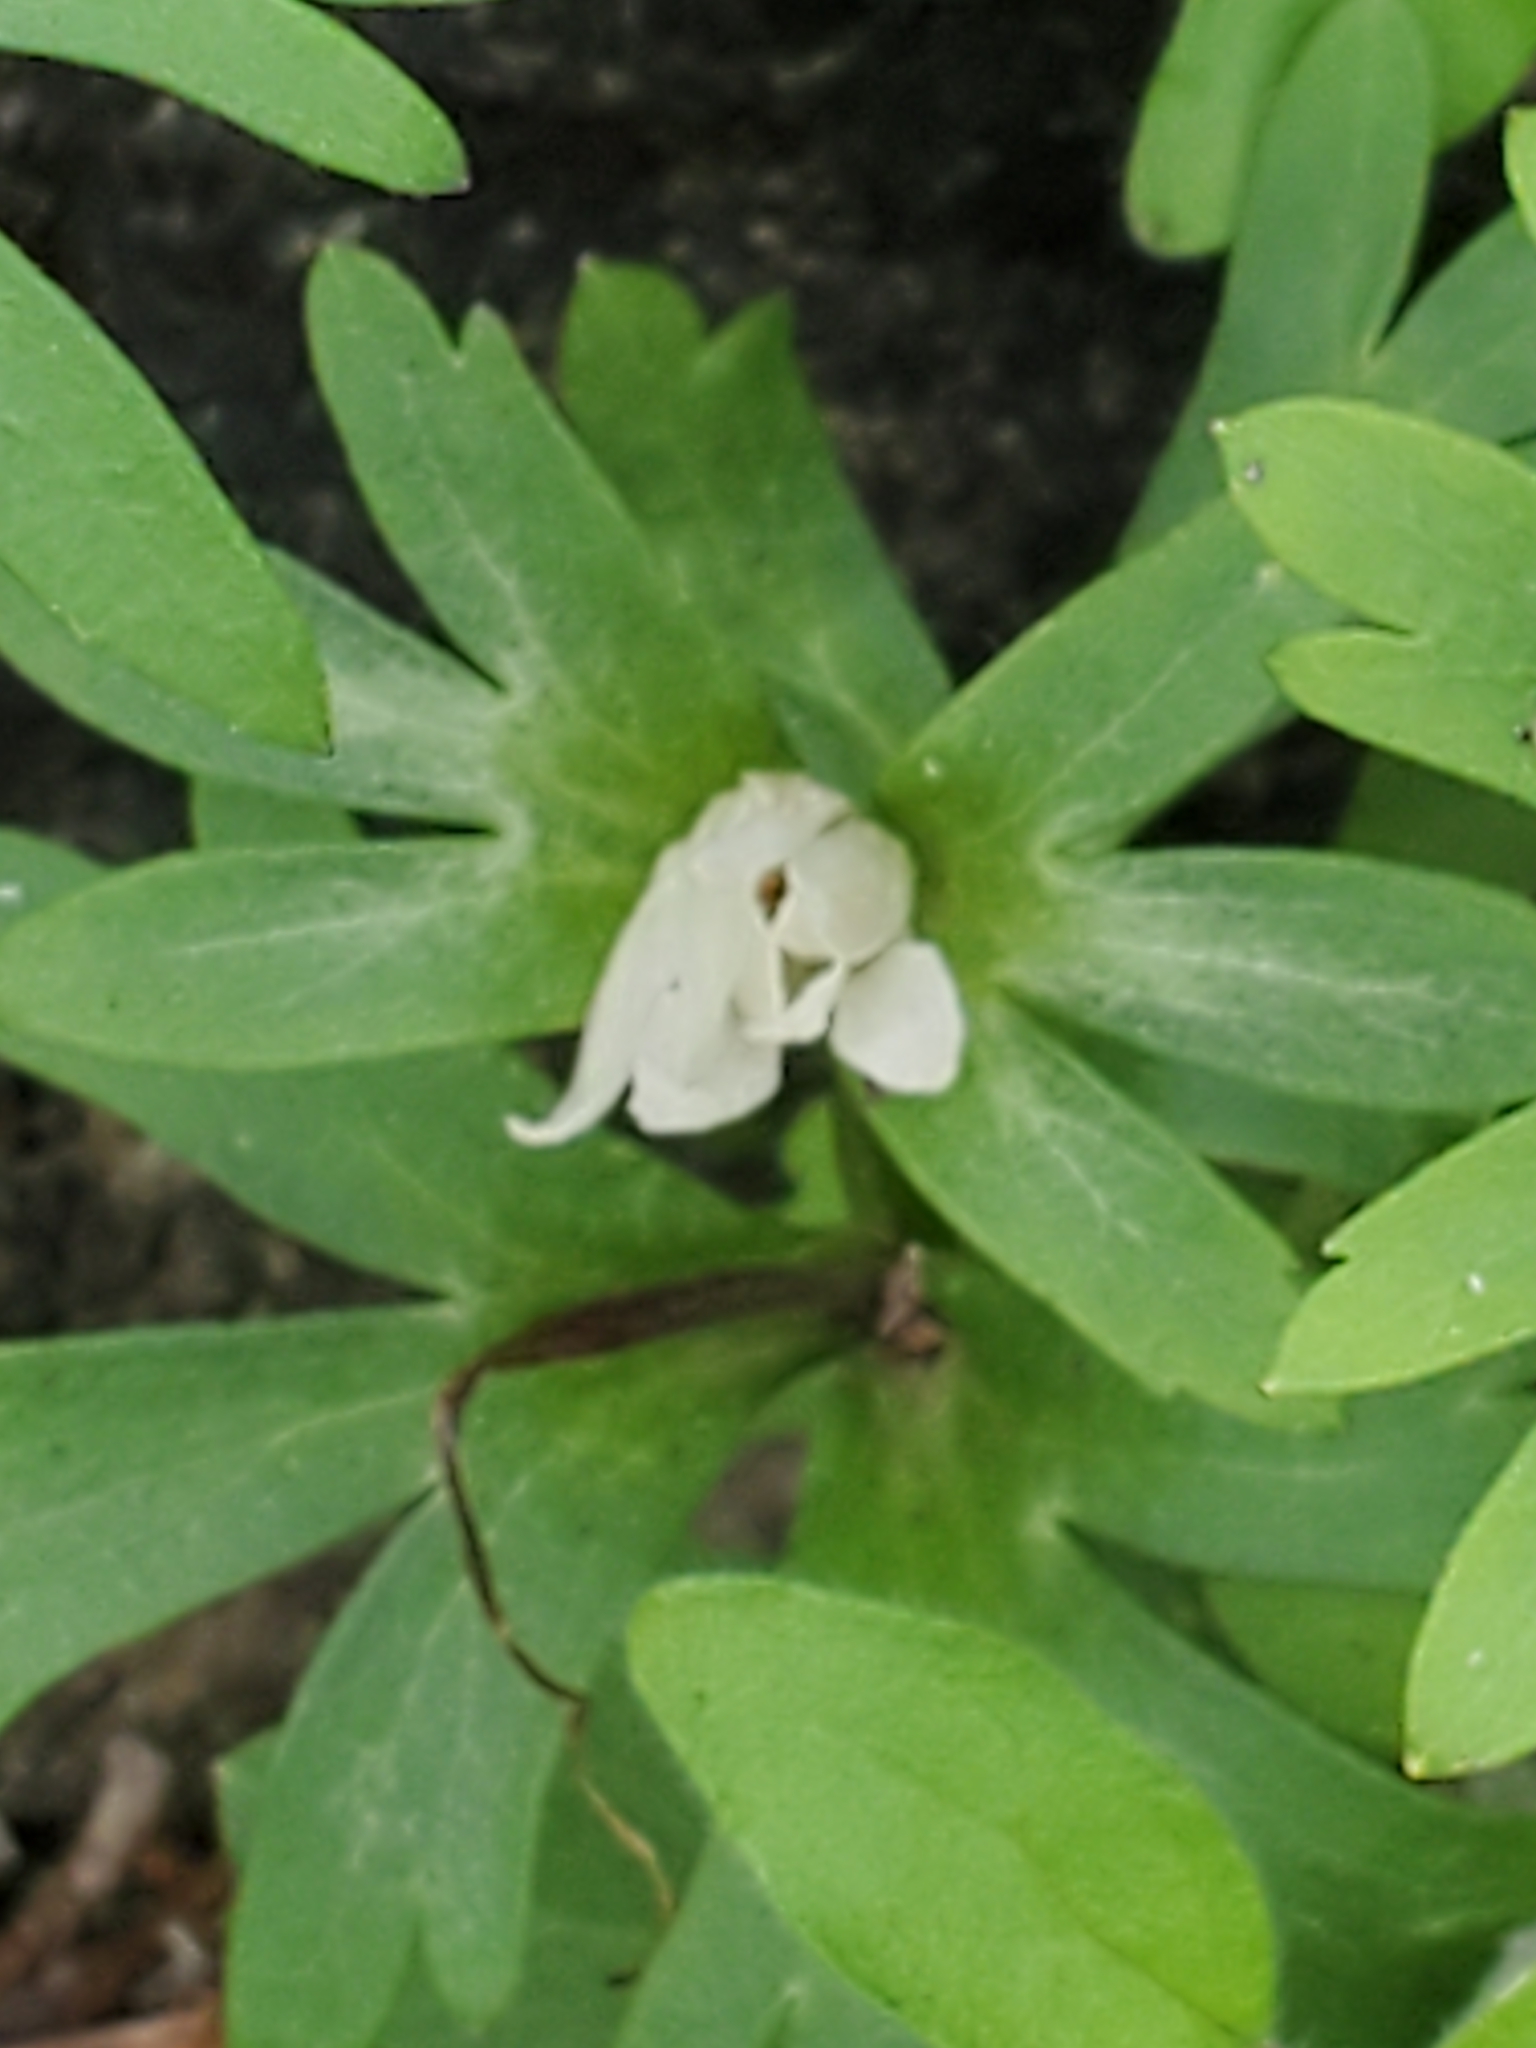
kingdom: Plantae
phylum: Tracheophyta
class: Magnoliopsida
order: Ranunculales
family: Ranunculaceae
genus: Anemone
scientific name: Anemone edwardsiana
